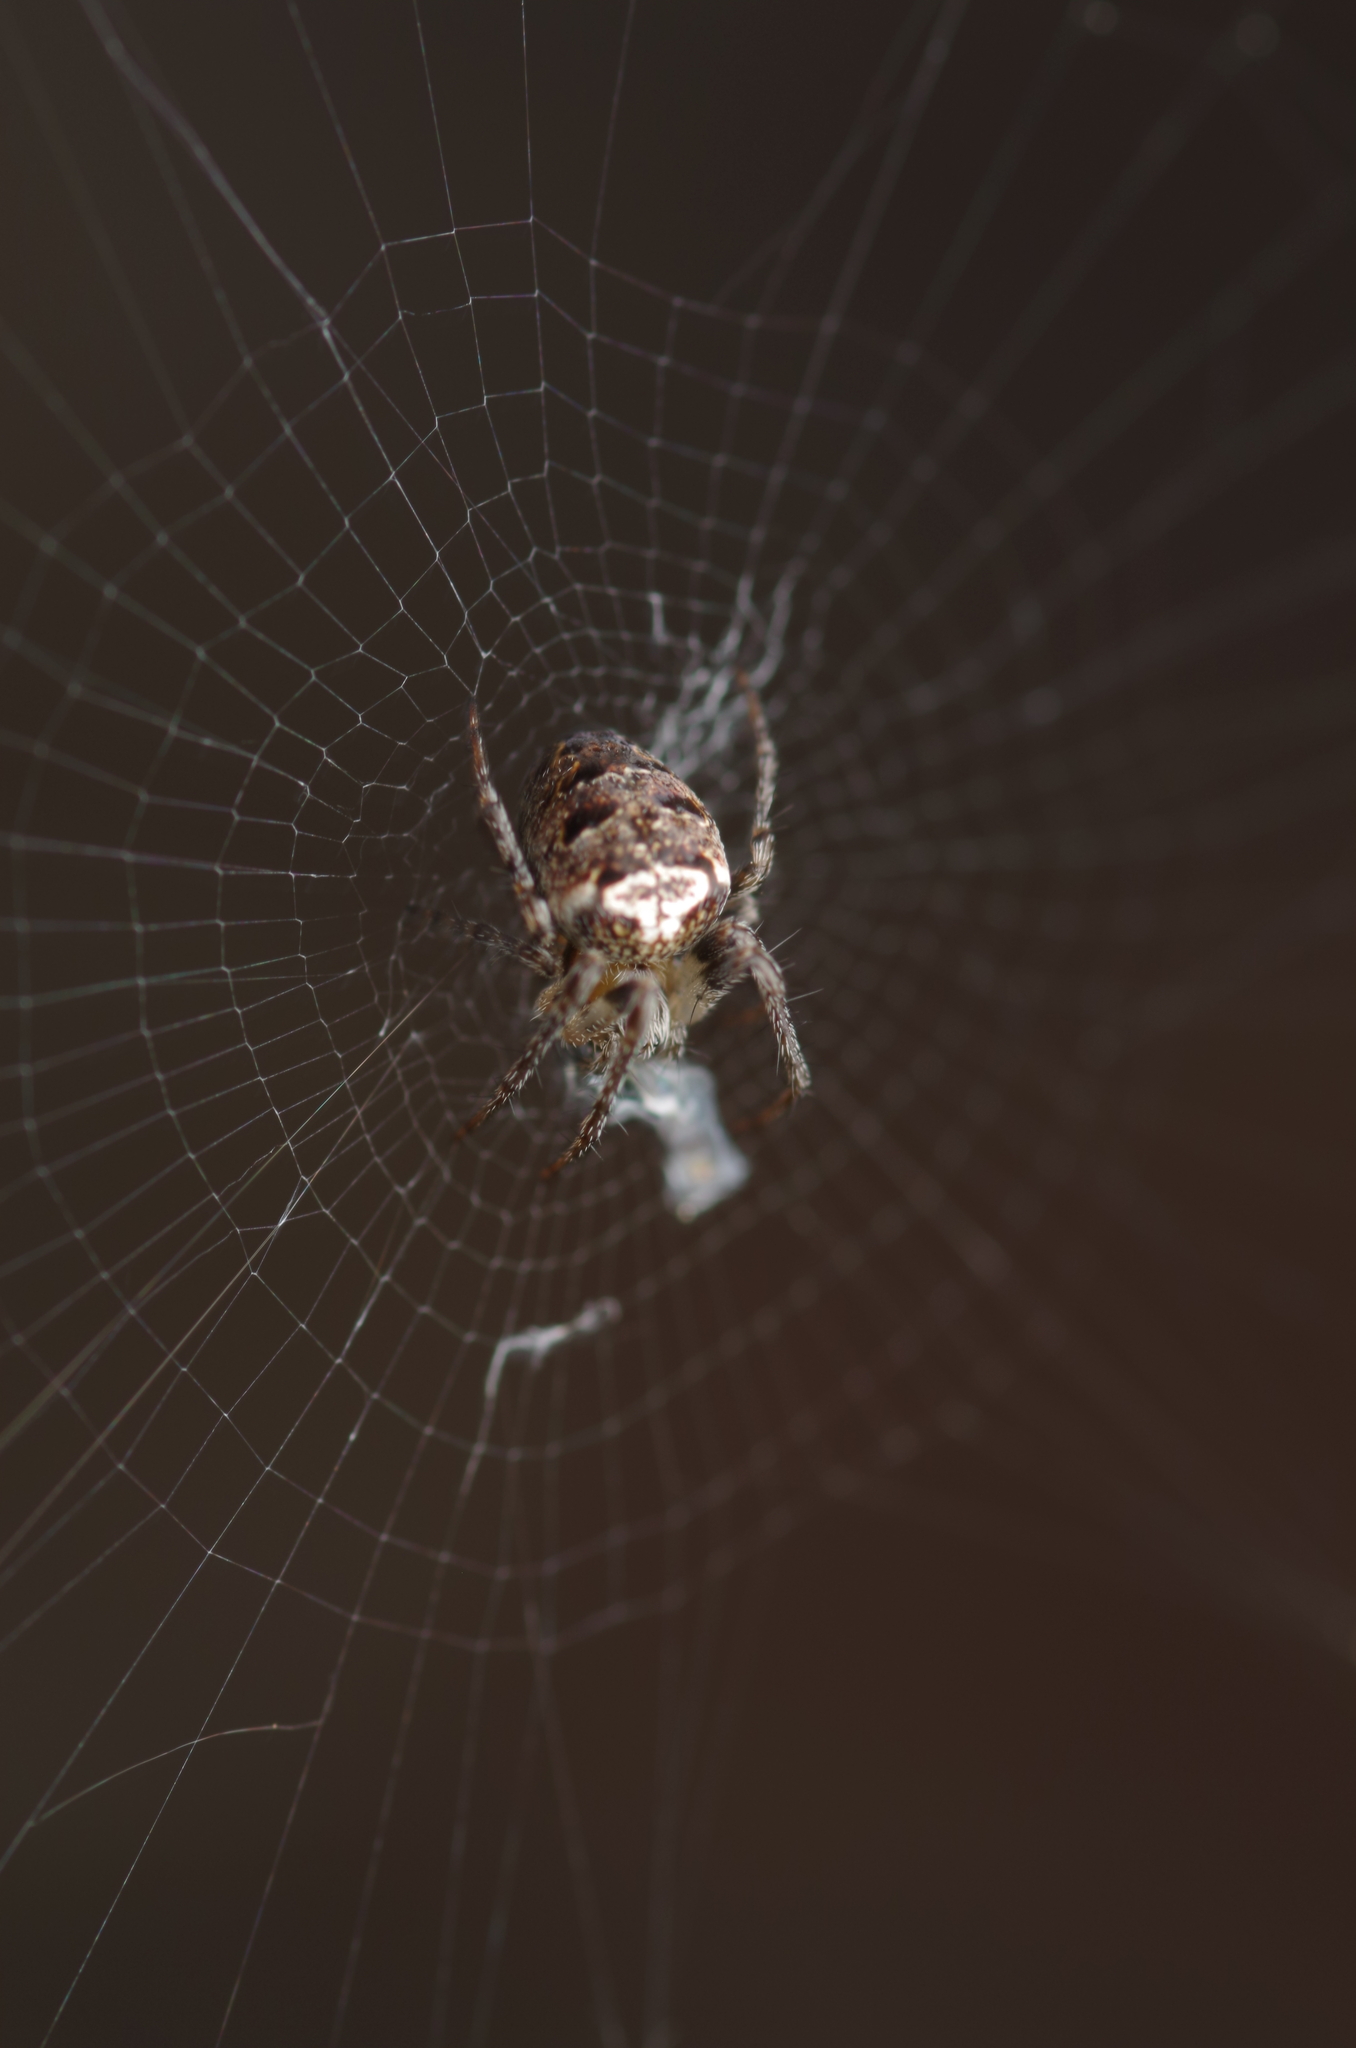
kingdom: Animalia
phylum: Arthropoda
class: Arachnida
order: Araneae
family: Araneidae
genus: Zilla
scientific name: Zilla diodia
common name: Zilla diodia
